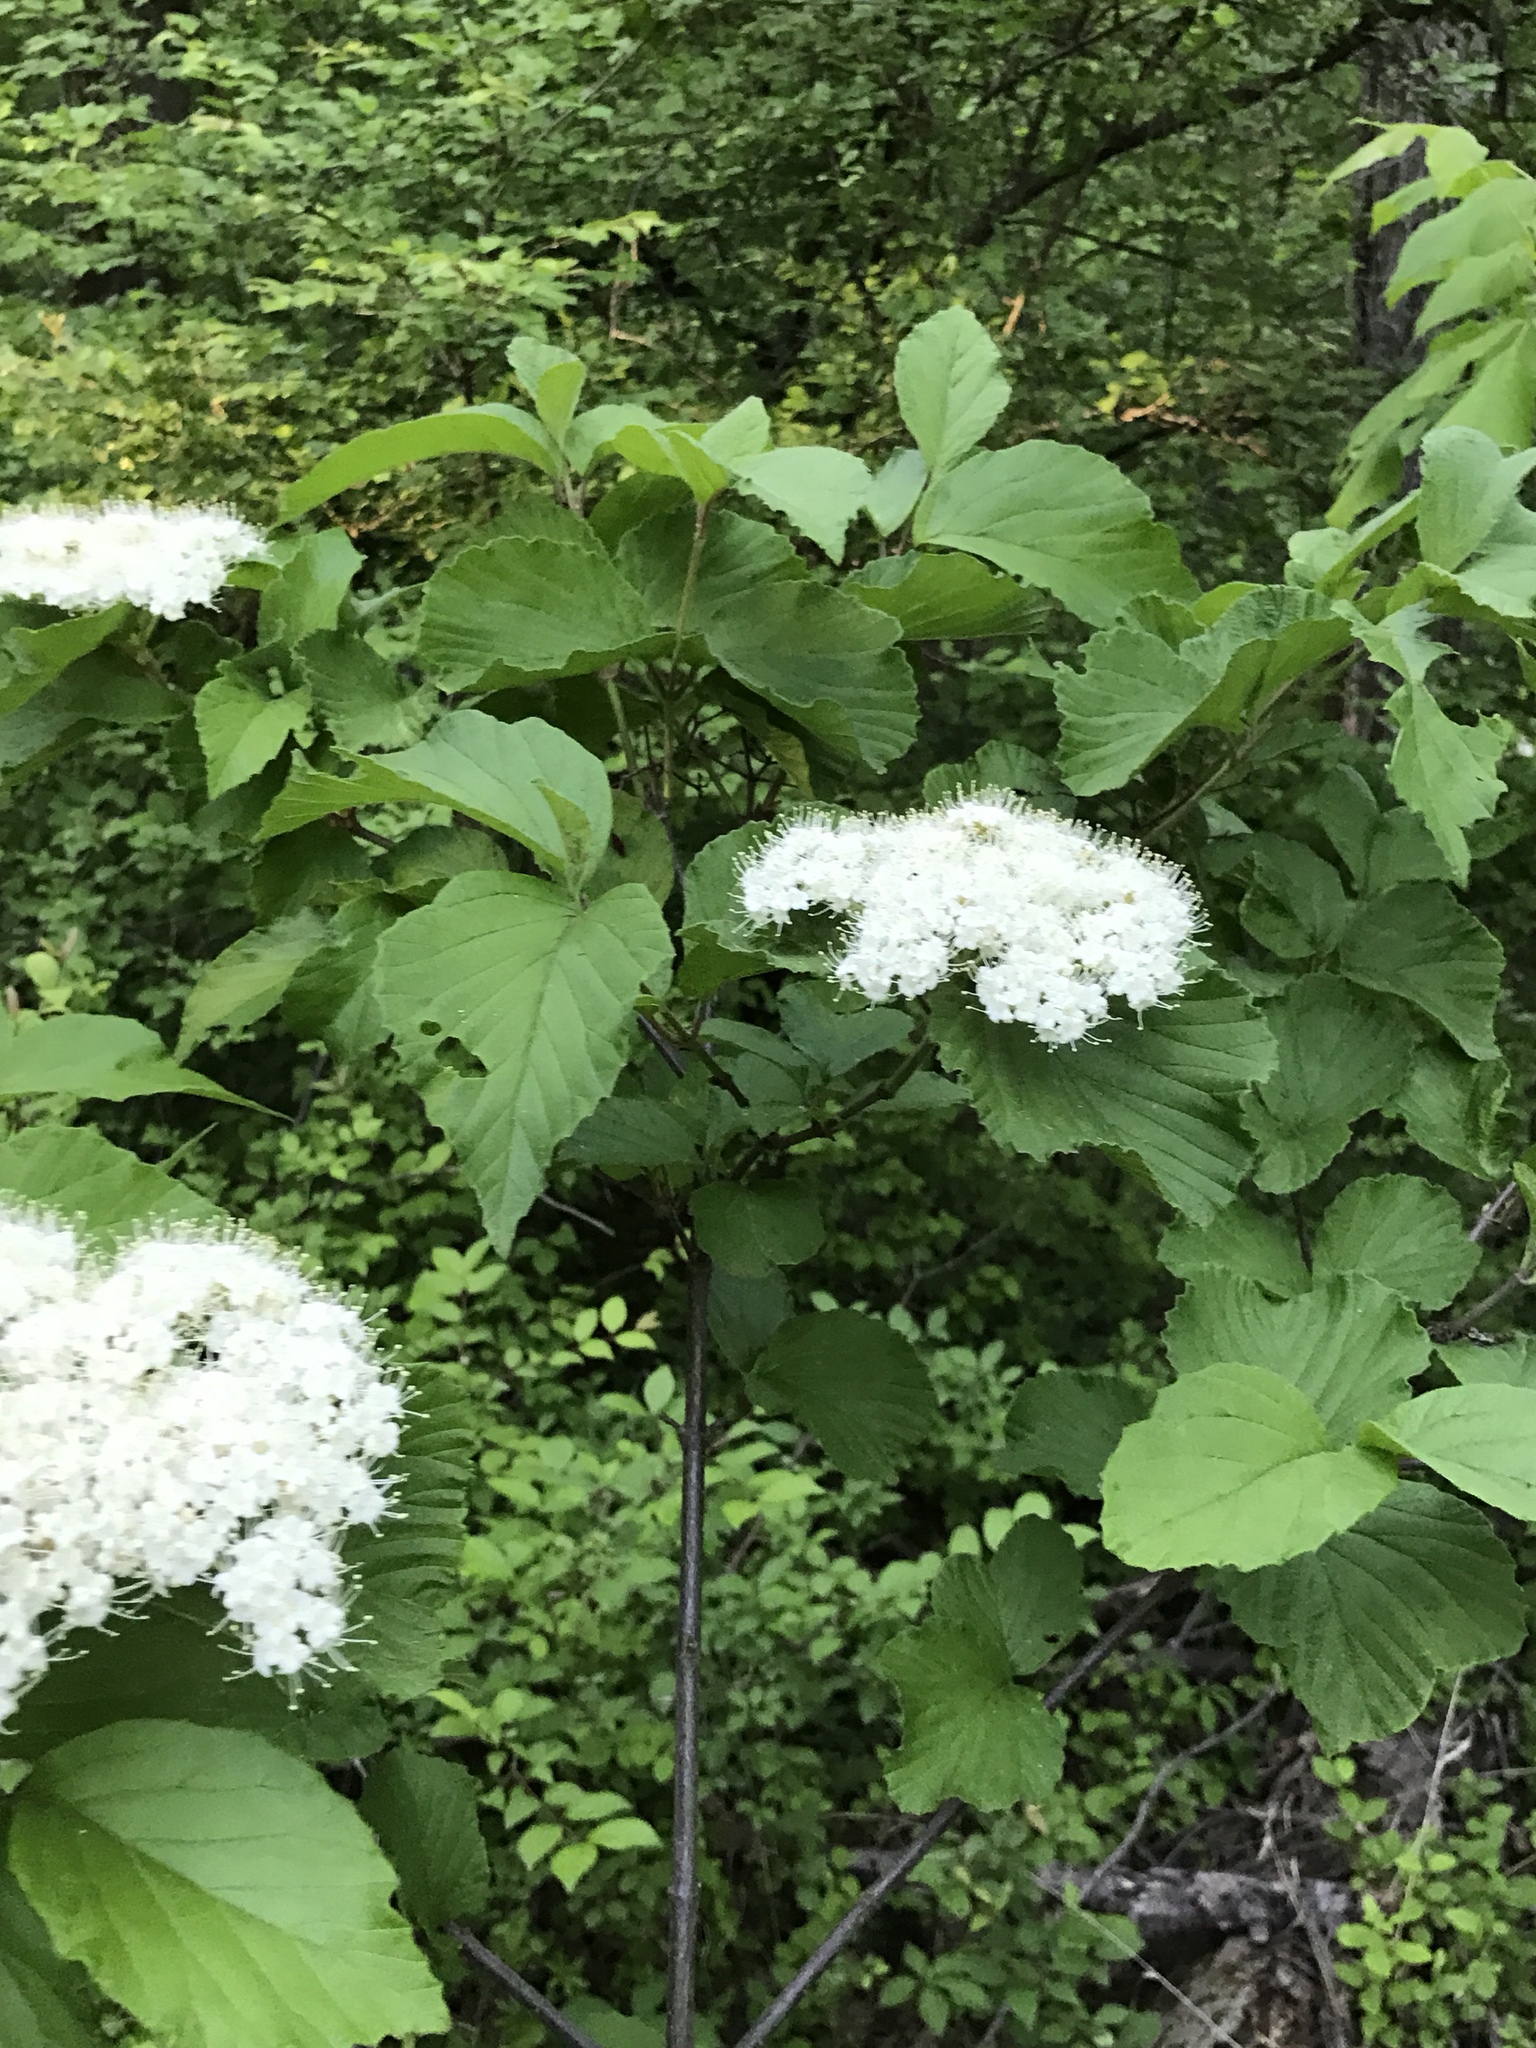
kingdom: Plantae
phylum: Tracheophyta
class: Magnoliopsida
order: Dipsacales
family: Viburnaceae
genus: Viburnum
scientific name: Viburnum dilatatum
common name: Linden arrowwood
